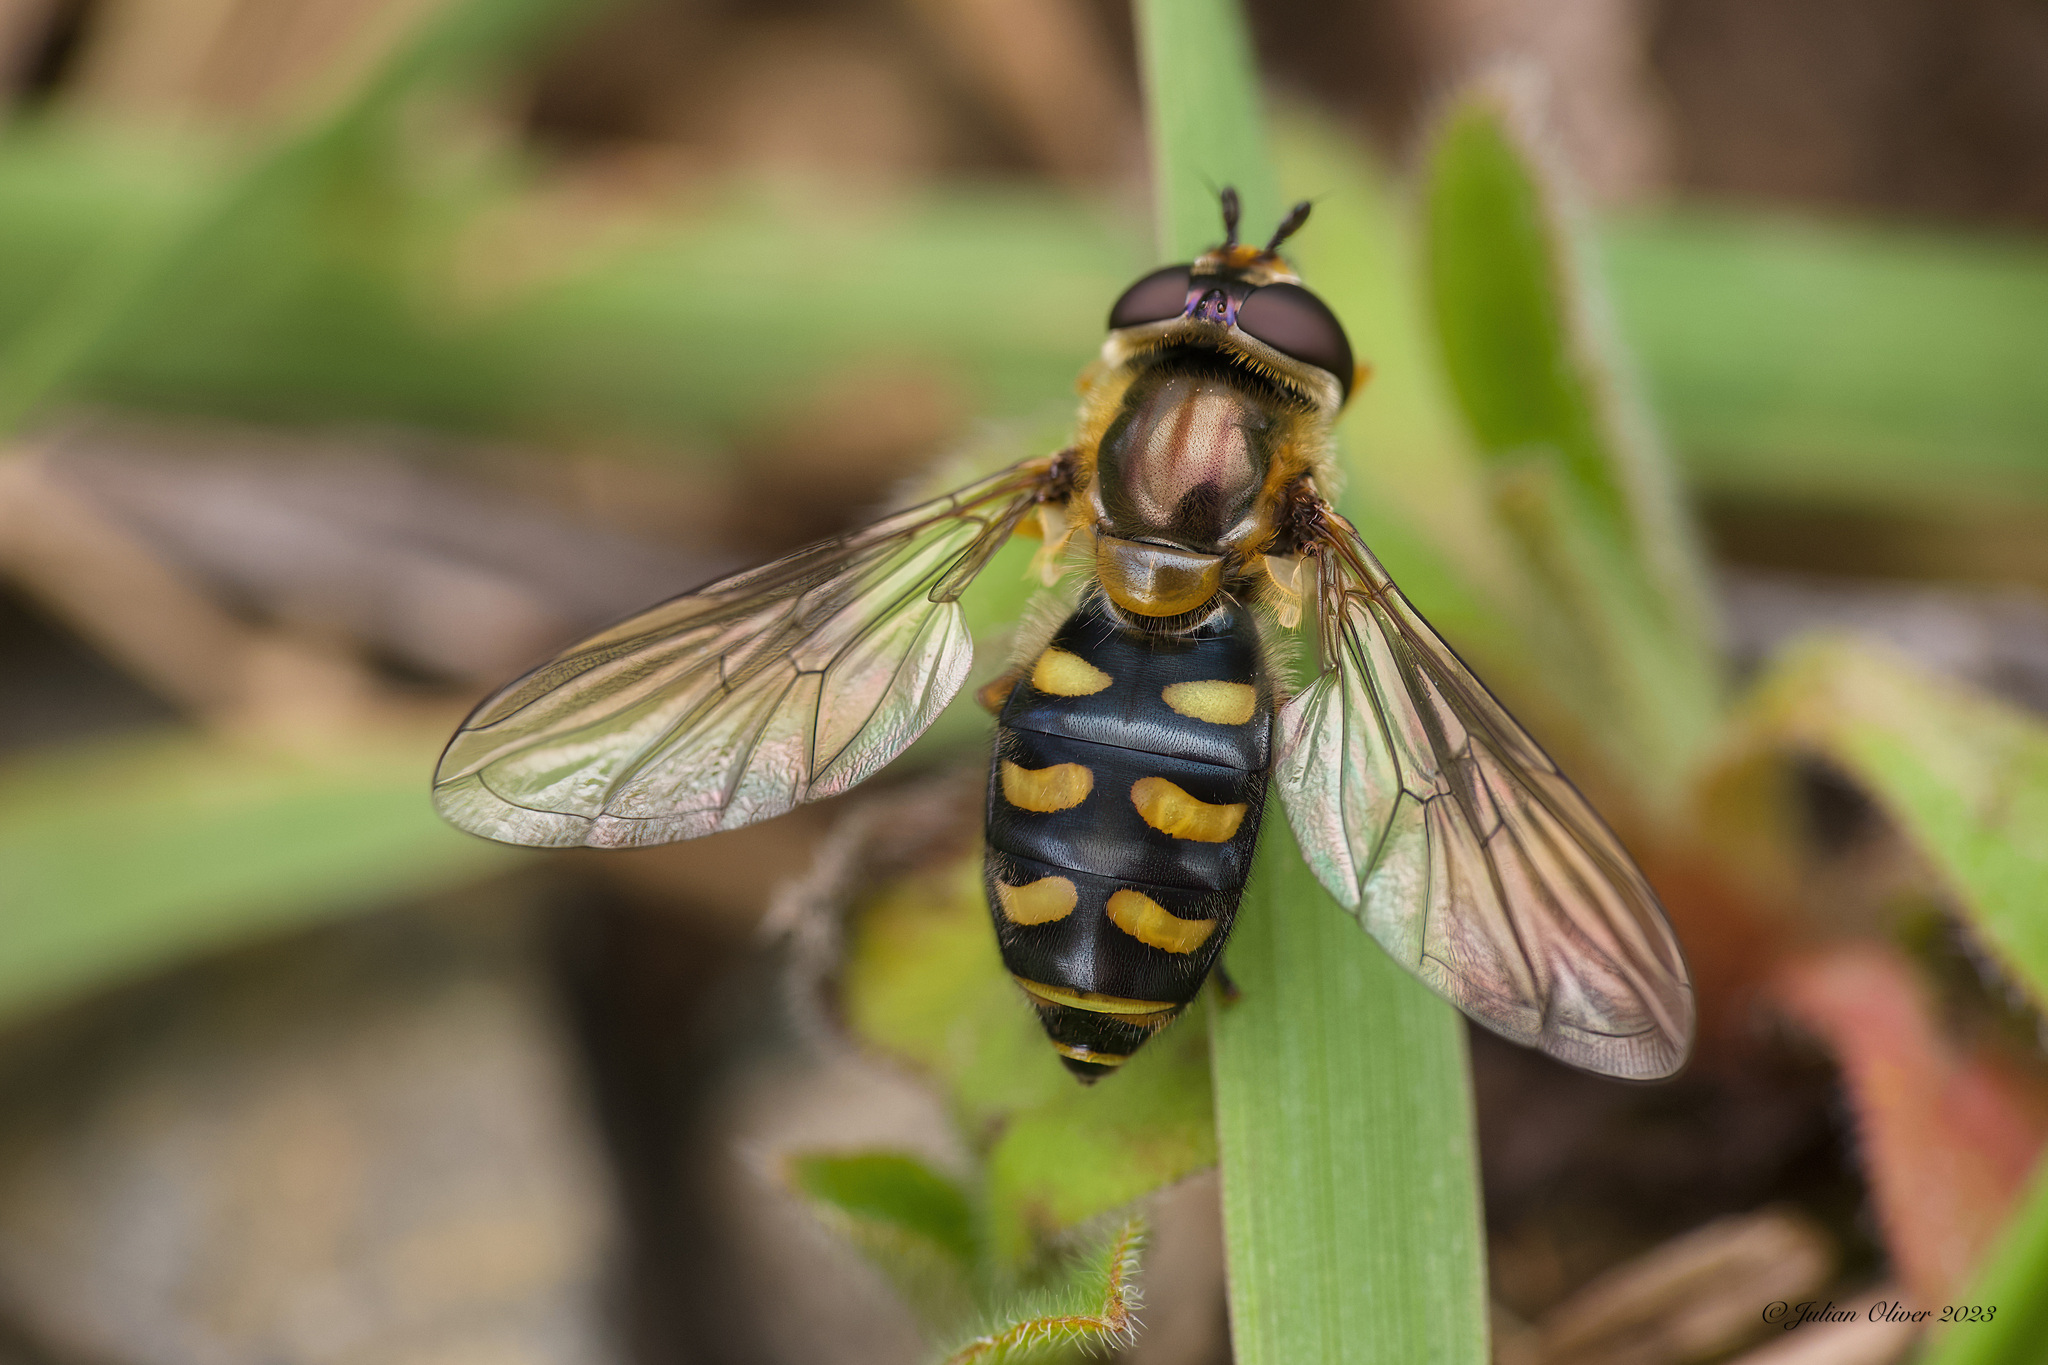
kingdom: Animalia
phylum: Arthropoda
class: Insecta
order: Diptera
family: Syrphidae
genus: Eupeodes
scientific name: Eupeodes luniger
